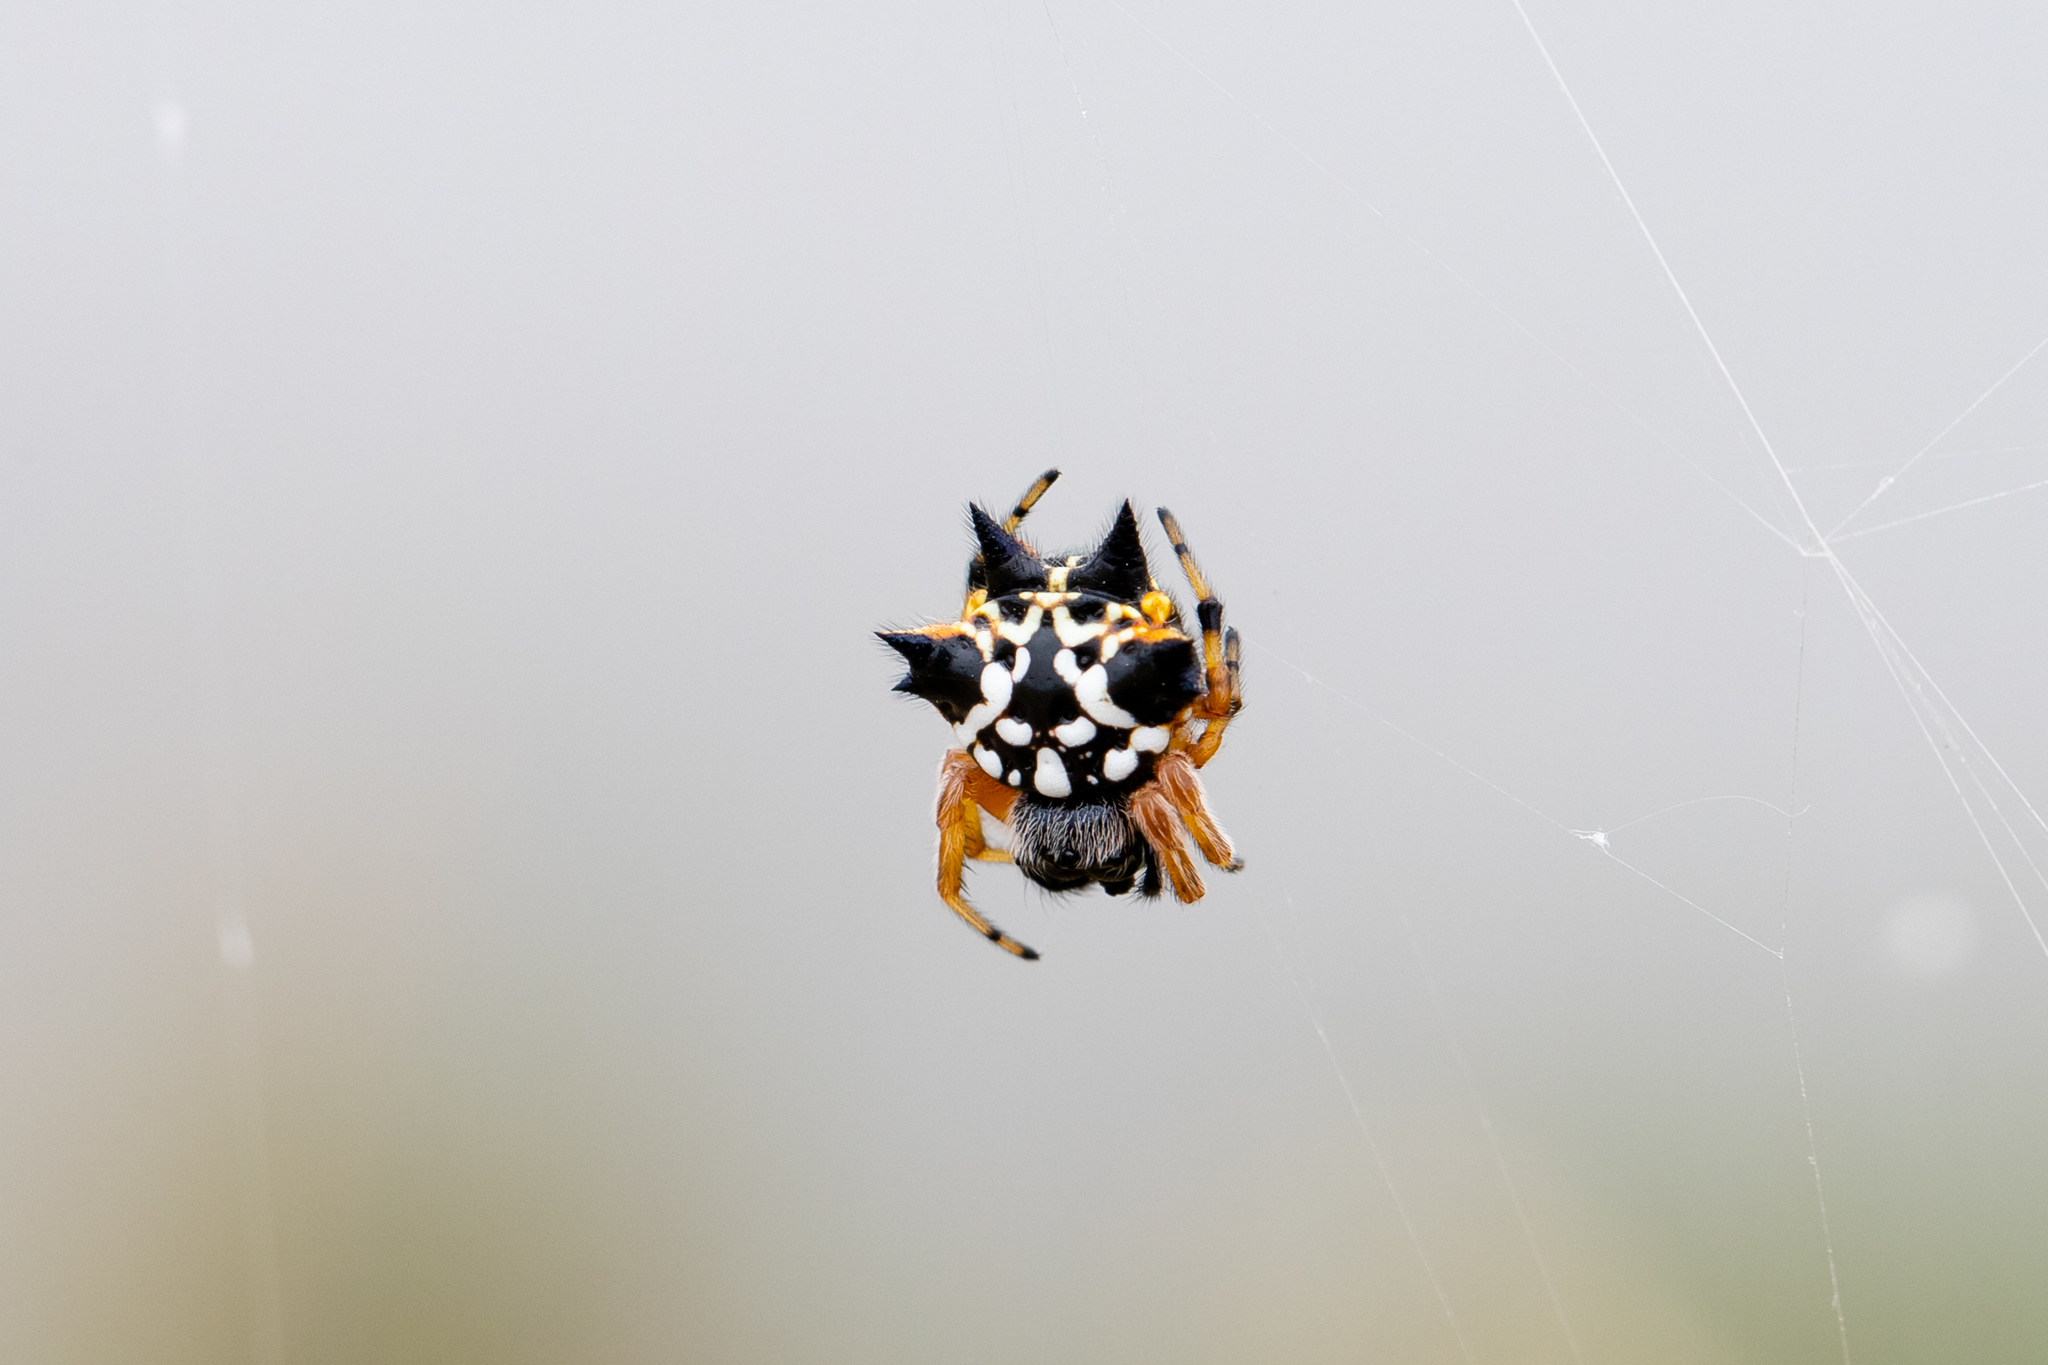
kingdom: Animalia
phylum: Arthropoda
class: Arachnida
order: Araneae
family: Araneidae
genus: Austracantha
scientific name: Austracantha minax
